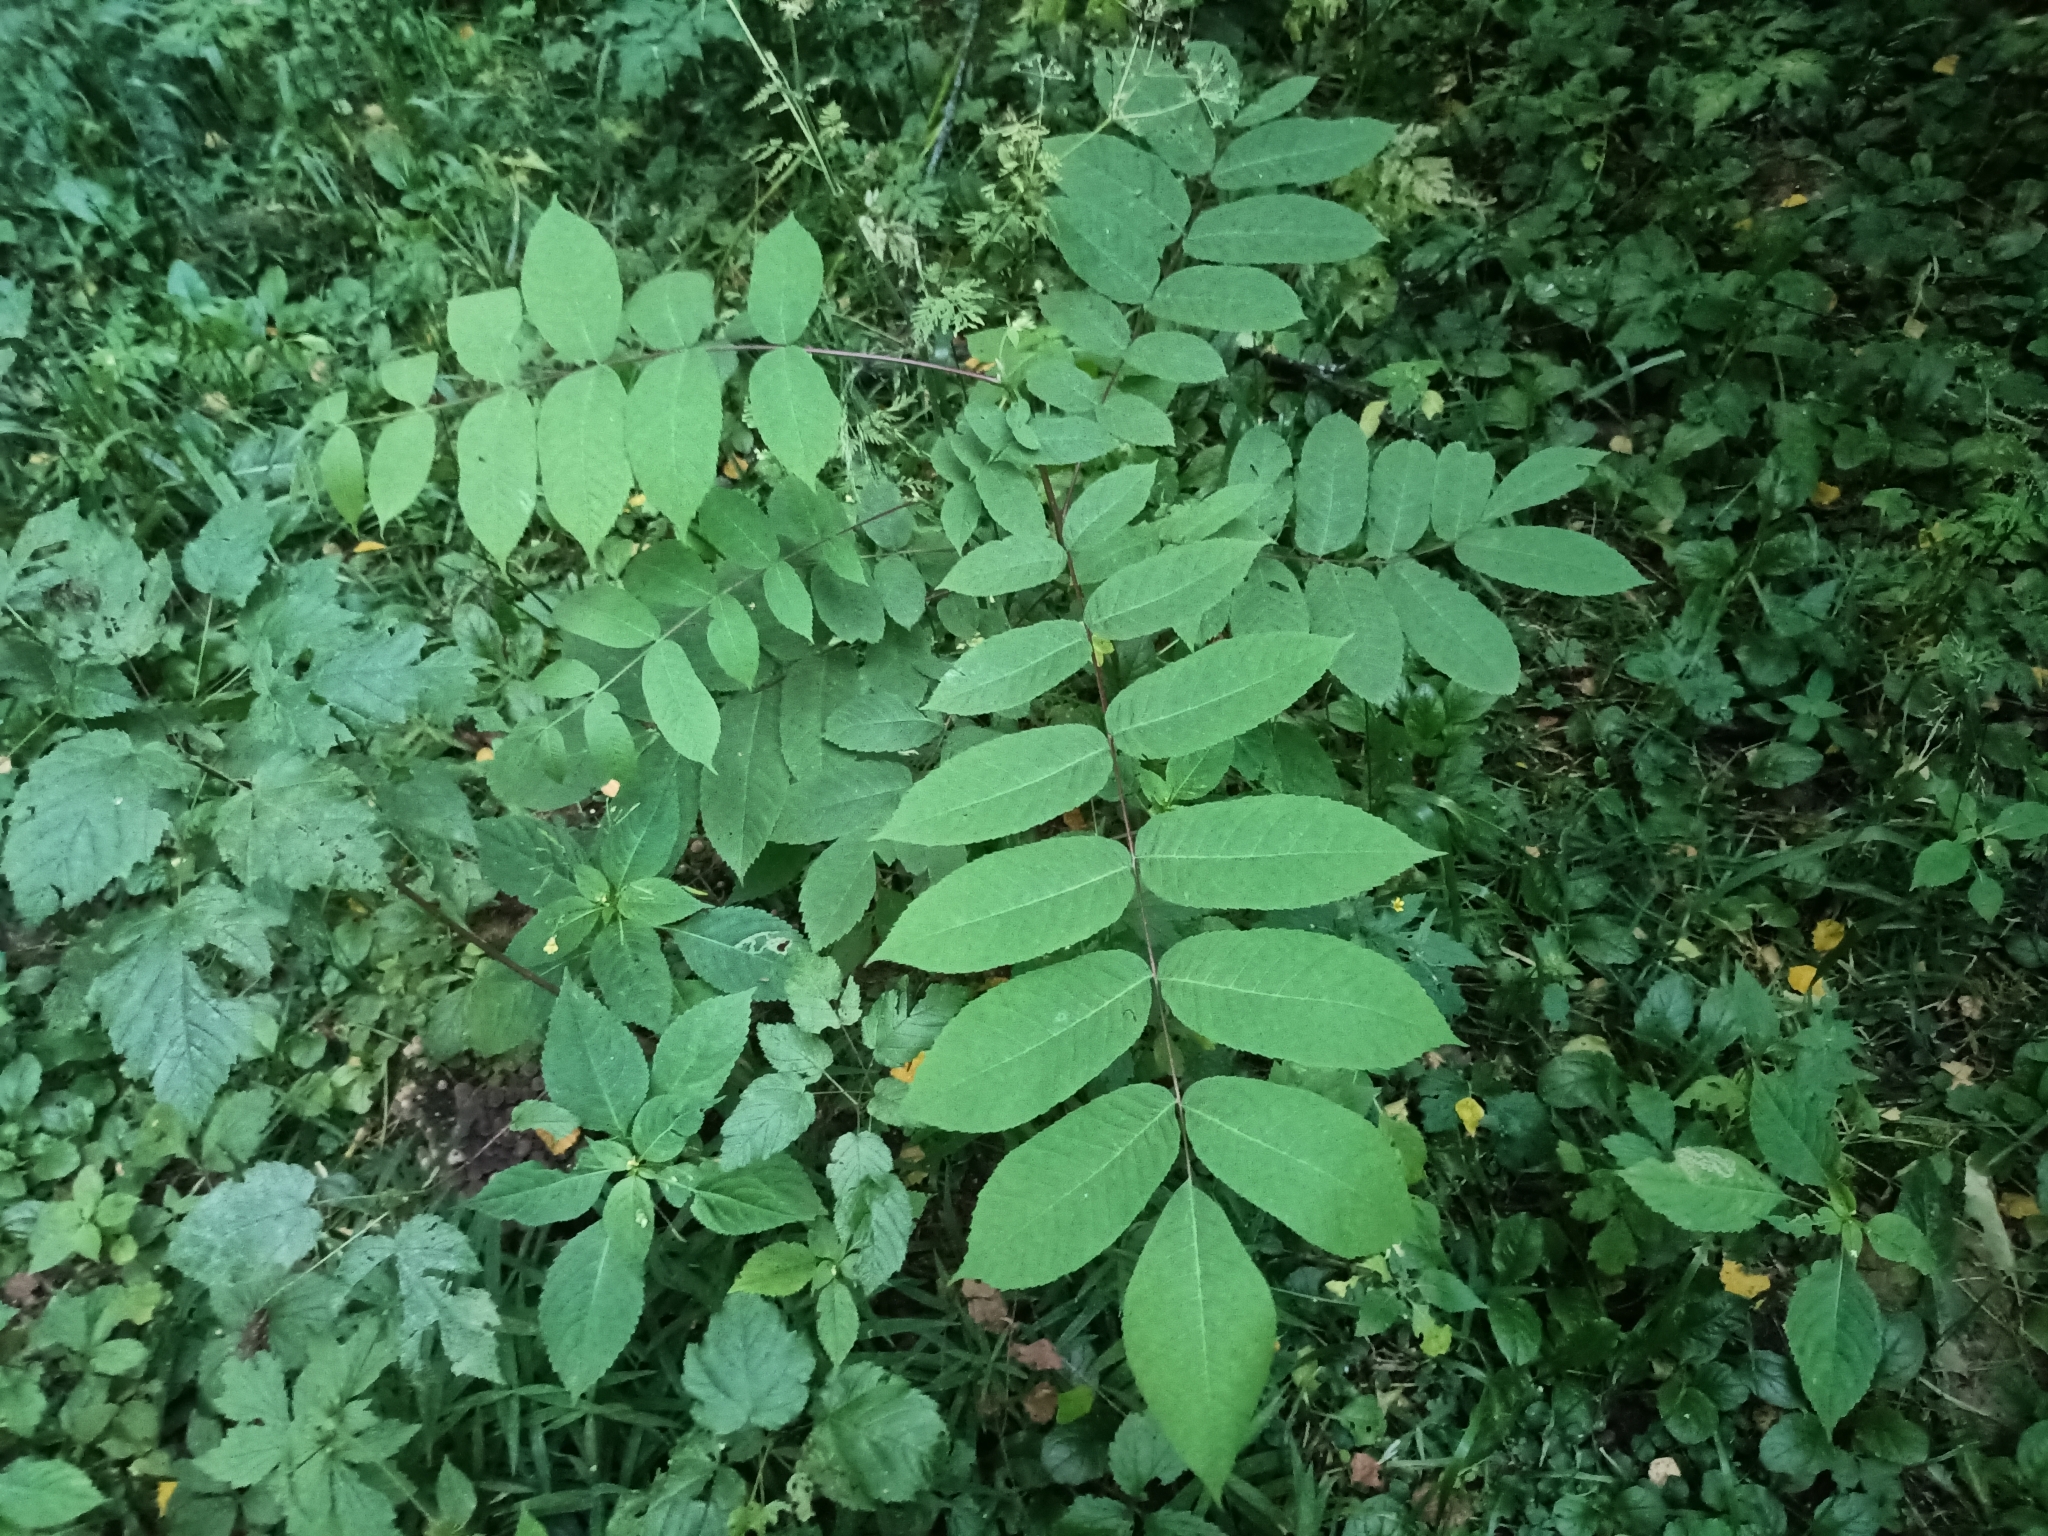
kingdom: Plantae
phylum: Tracheophyta
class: Magnoliopsida
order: Fagales
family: Juglandaceae
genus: Juglans
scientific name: Juglans mandshurica
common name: Manchurian walnut
